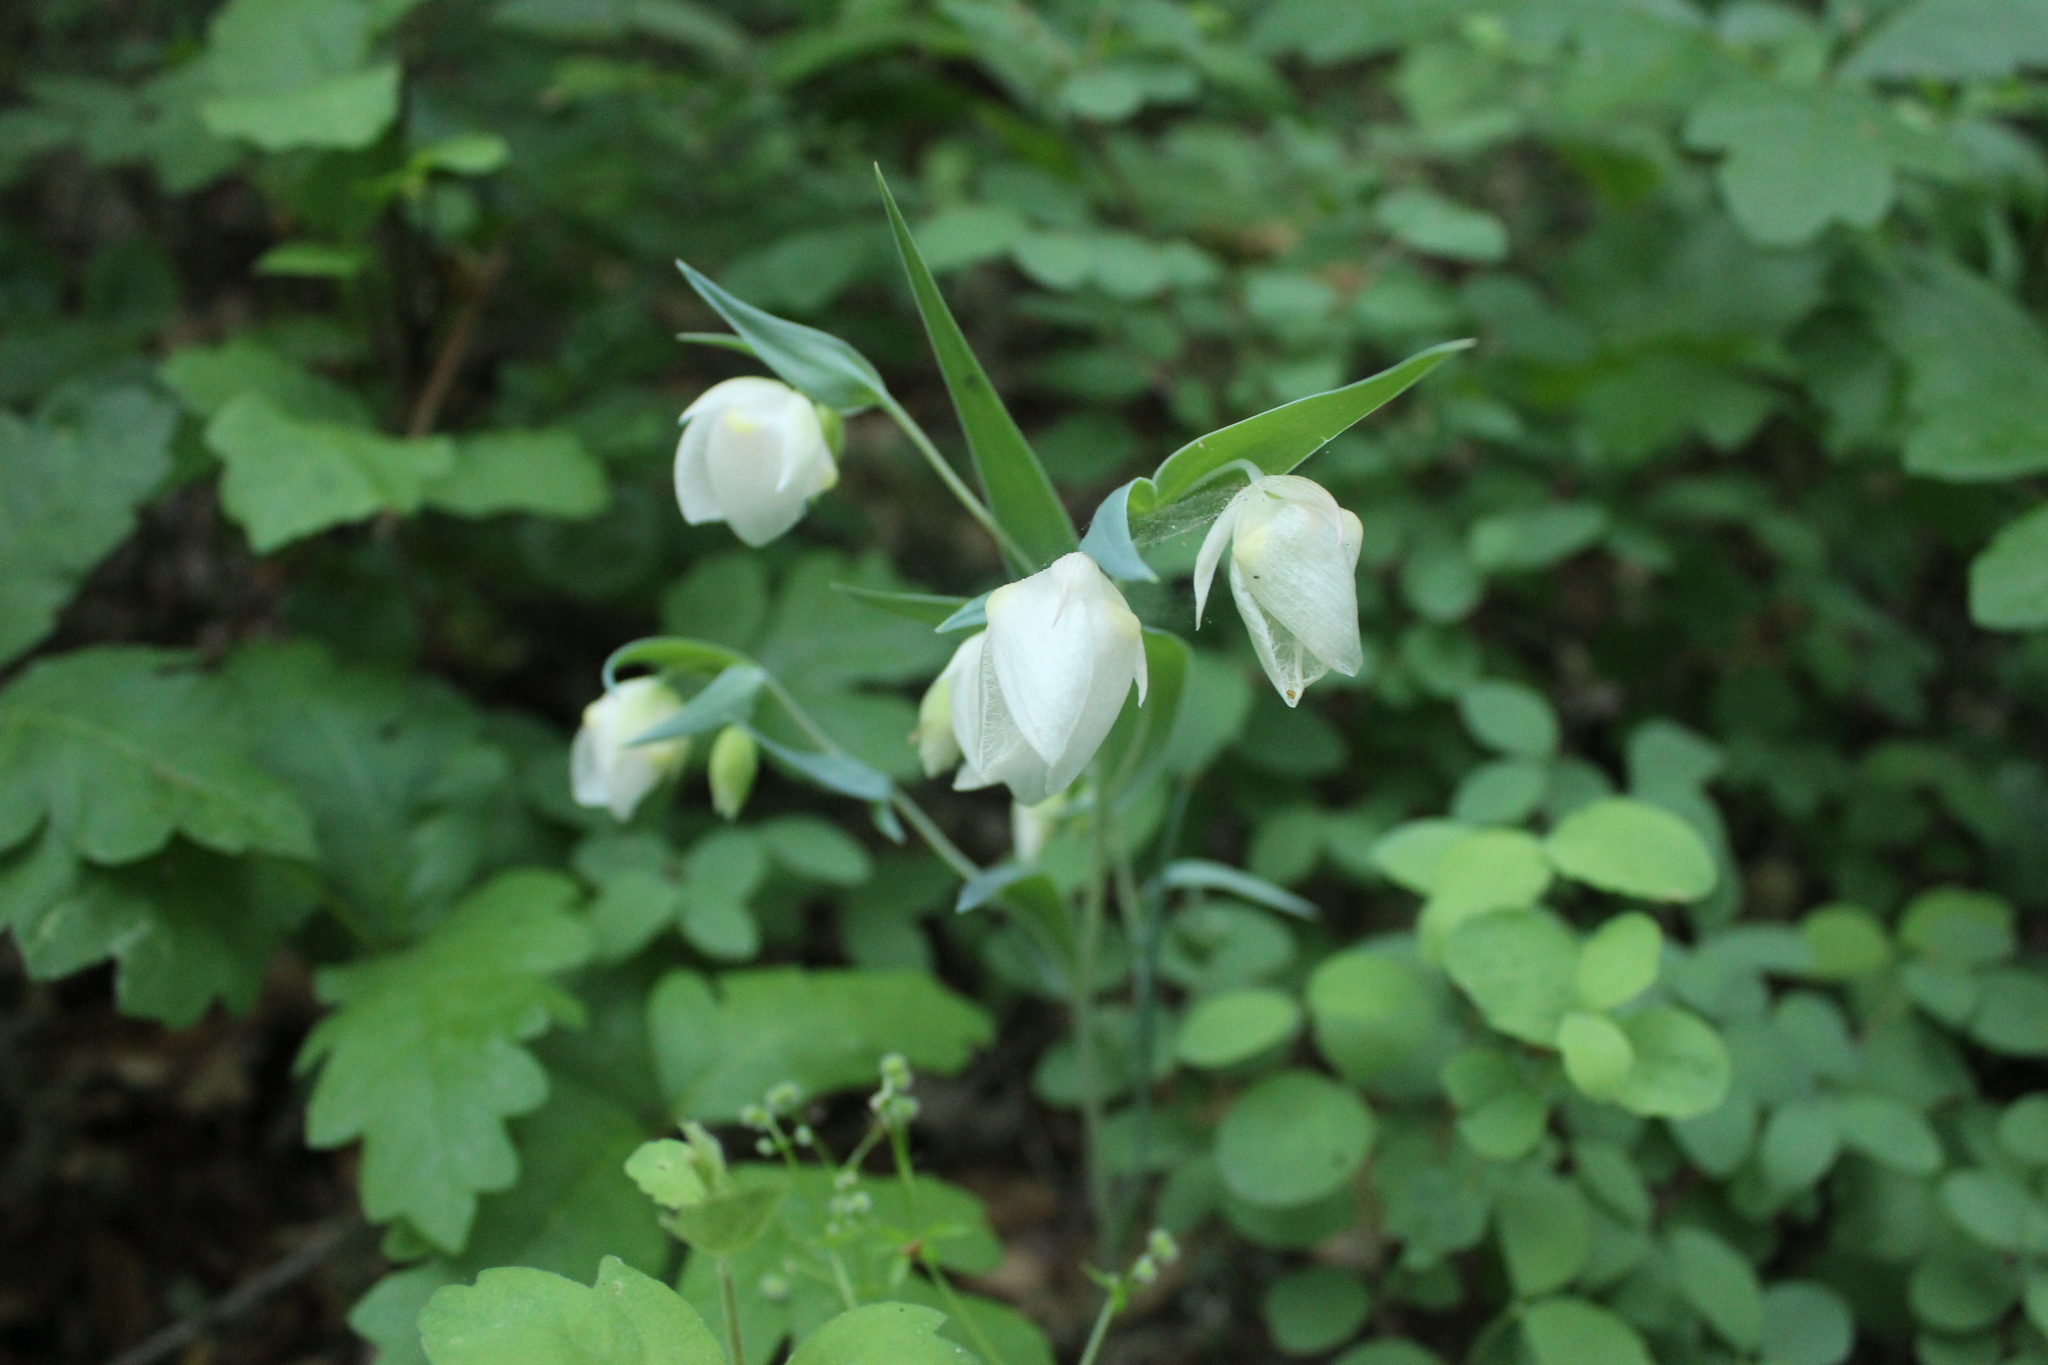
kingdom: Plantae
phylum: Tracheophyta
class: Liliopsida
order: Liliales
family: Liliaceae
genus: Calochortus
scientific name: Calochortus albus
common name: Fairy-lantern
